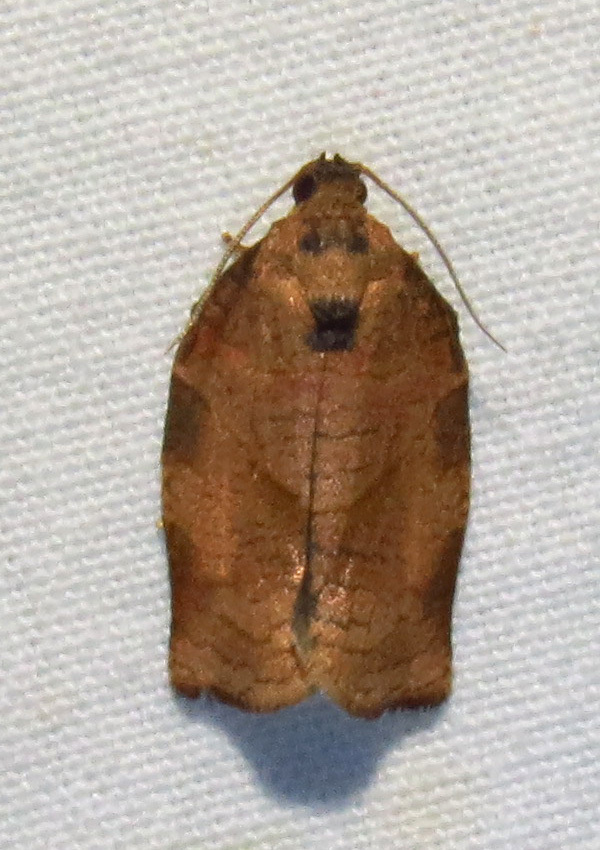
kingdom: Animalia
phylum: Arthropoda
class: Insecta
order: Lepidoptera
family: Tortricidae
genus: Choristoneura
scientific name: Choristoneura rosaceana
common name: Oblique-banded leafroller moth
